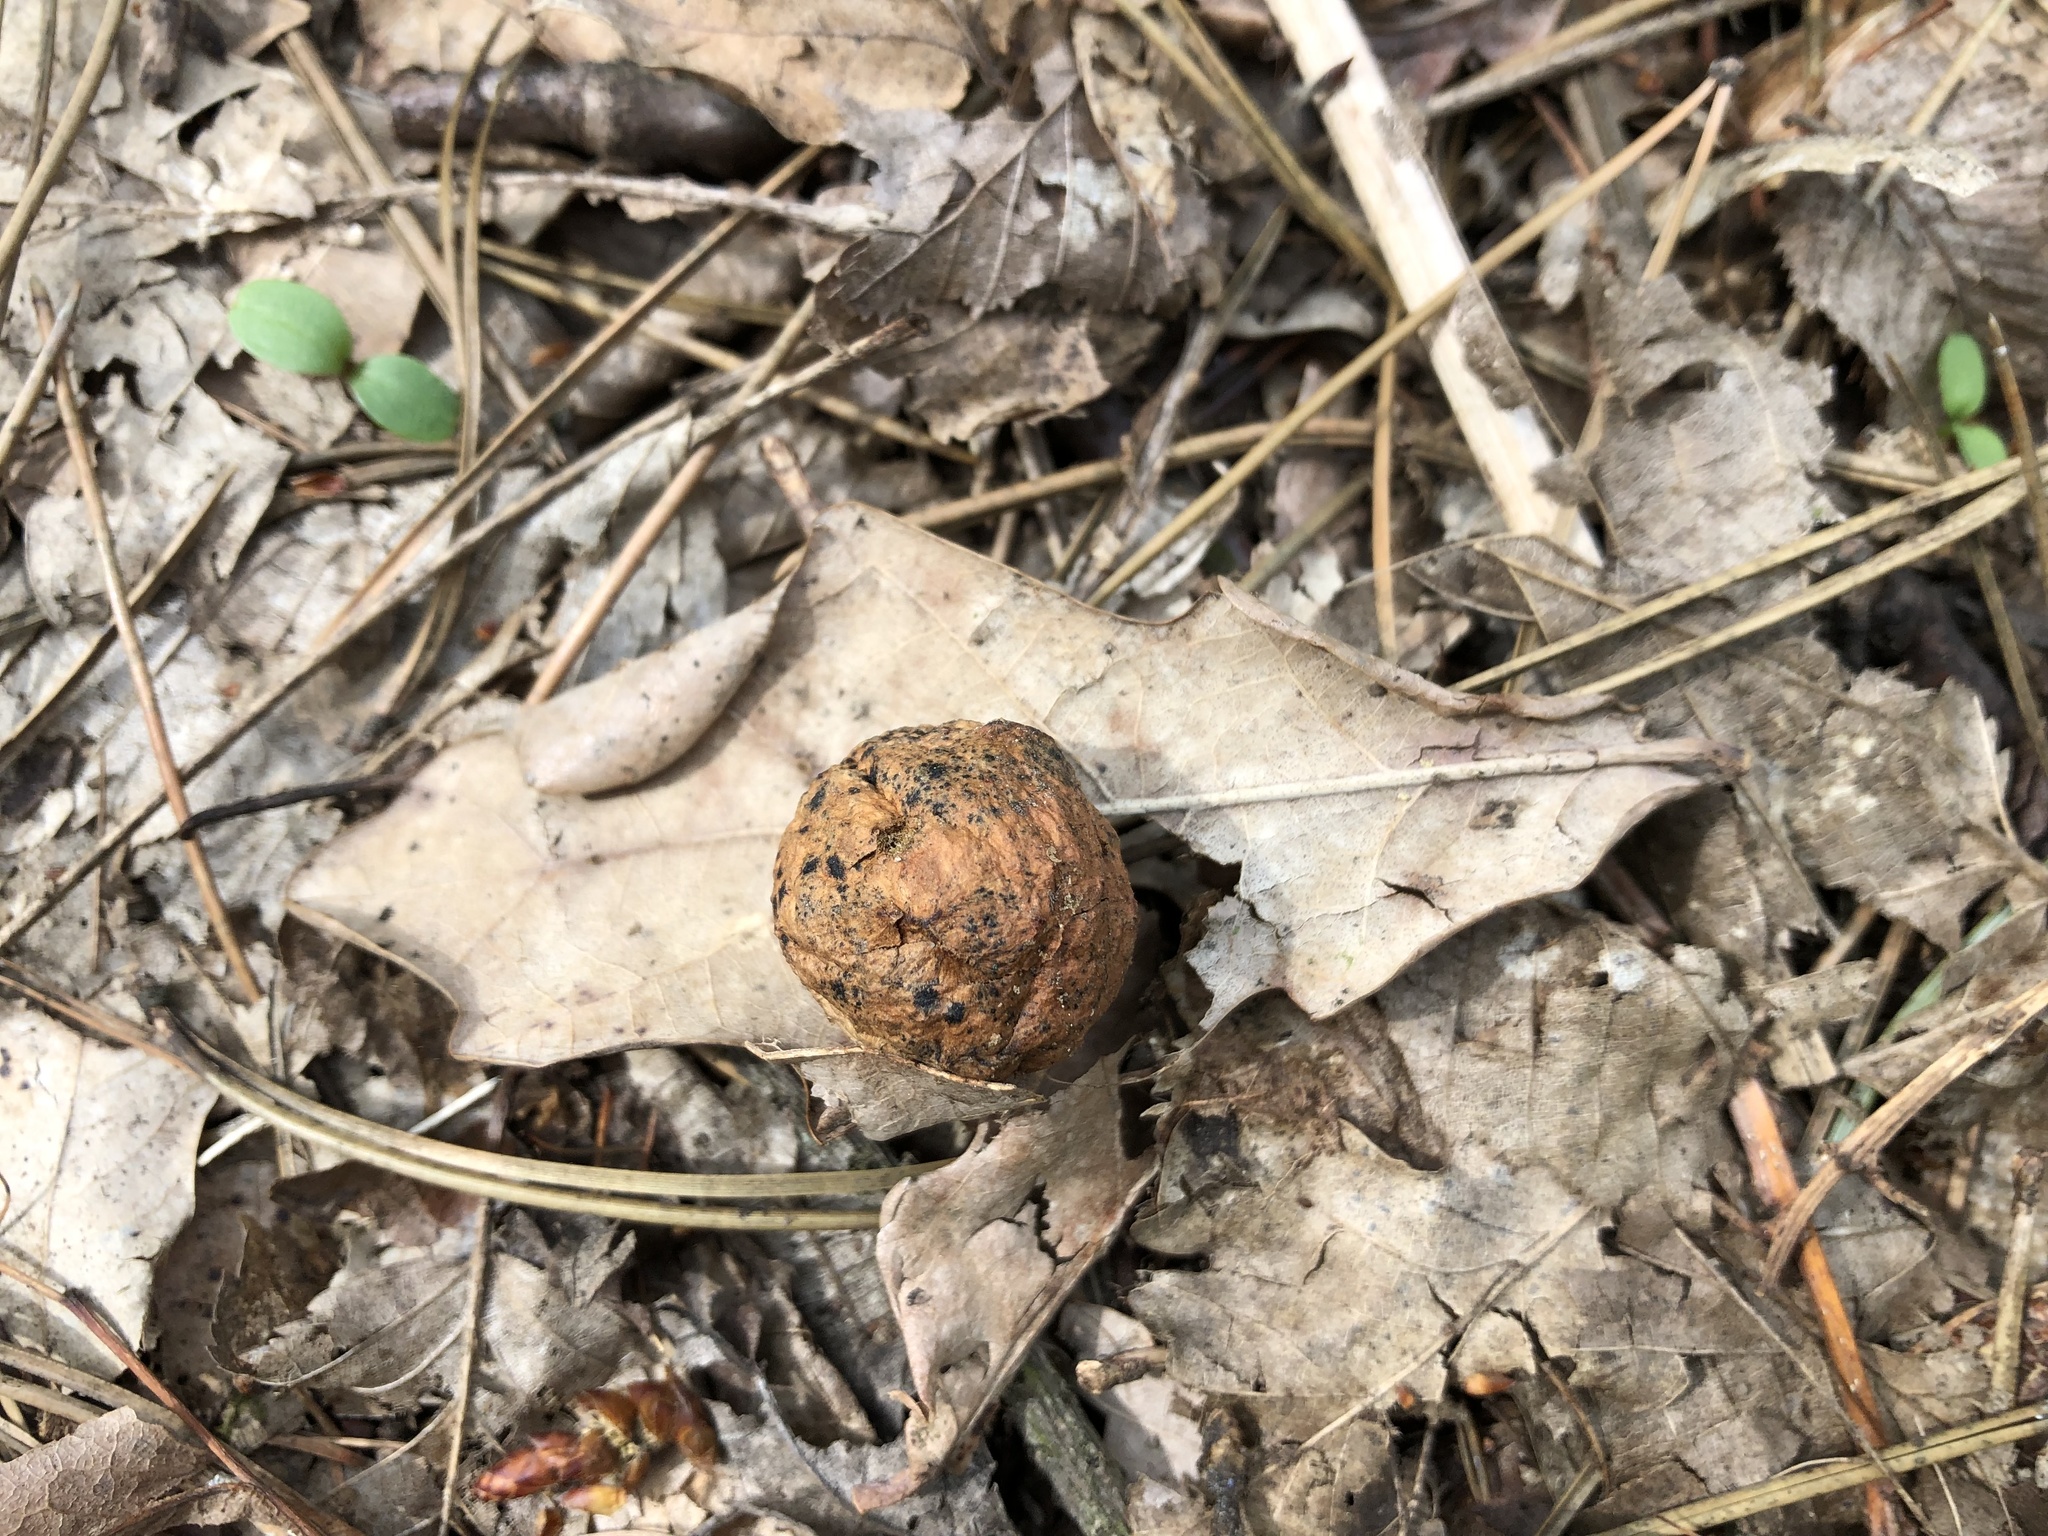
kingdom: Animalia
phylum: Arthropoda
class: Insecta
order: Hymenoptera
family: Cynipidae
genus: Cynips
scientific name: Cynips quercusfolii
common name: Cherry gall
